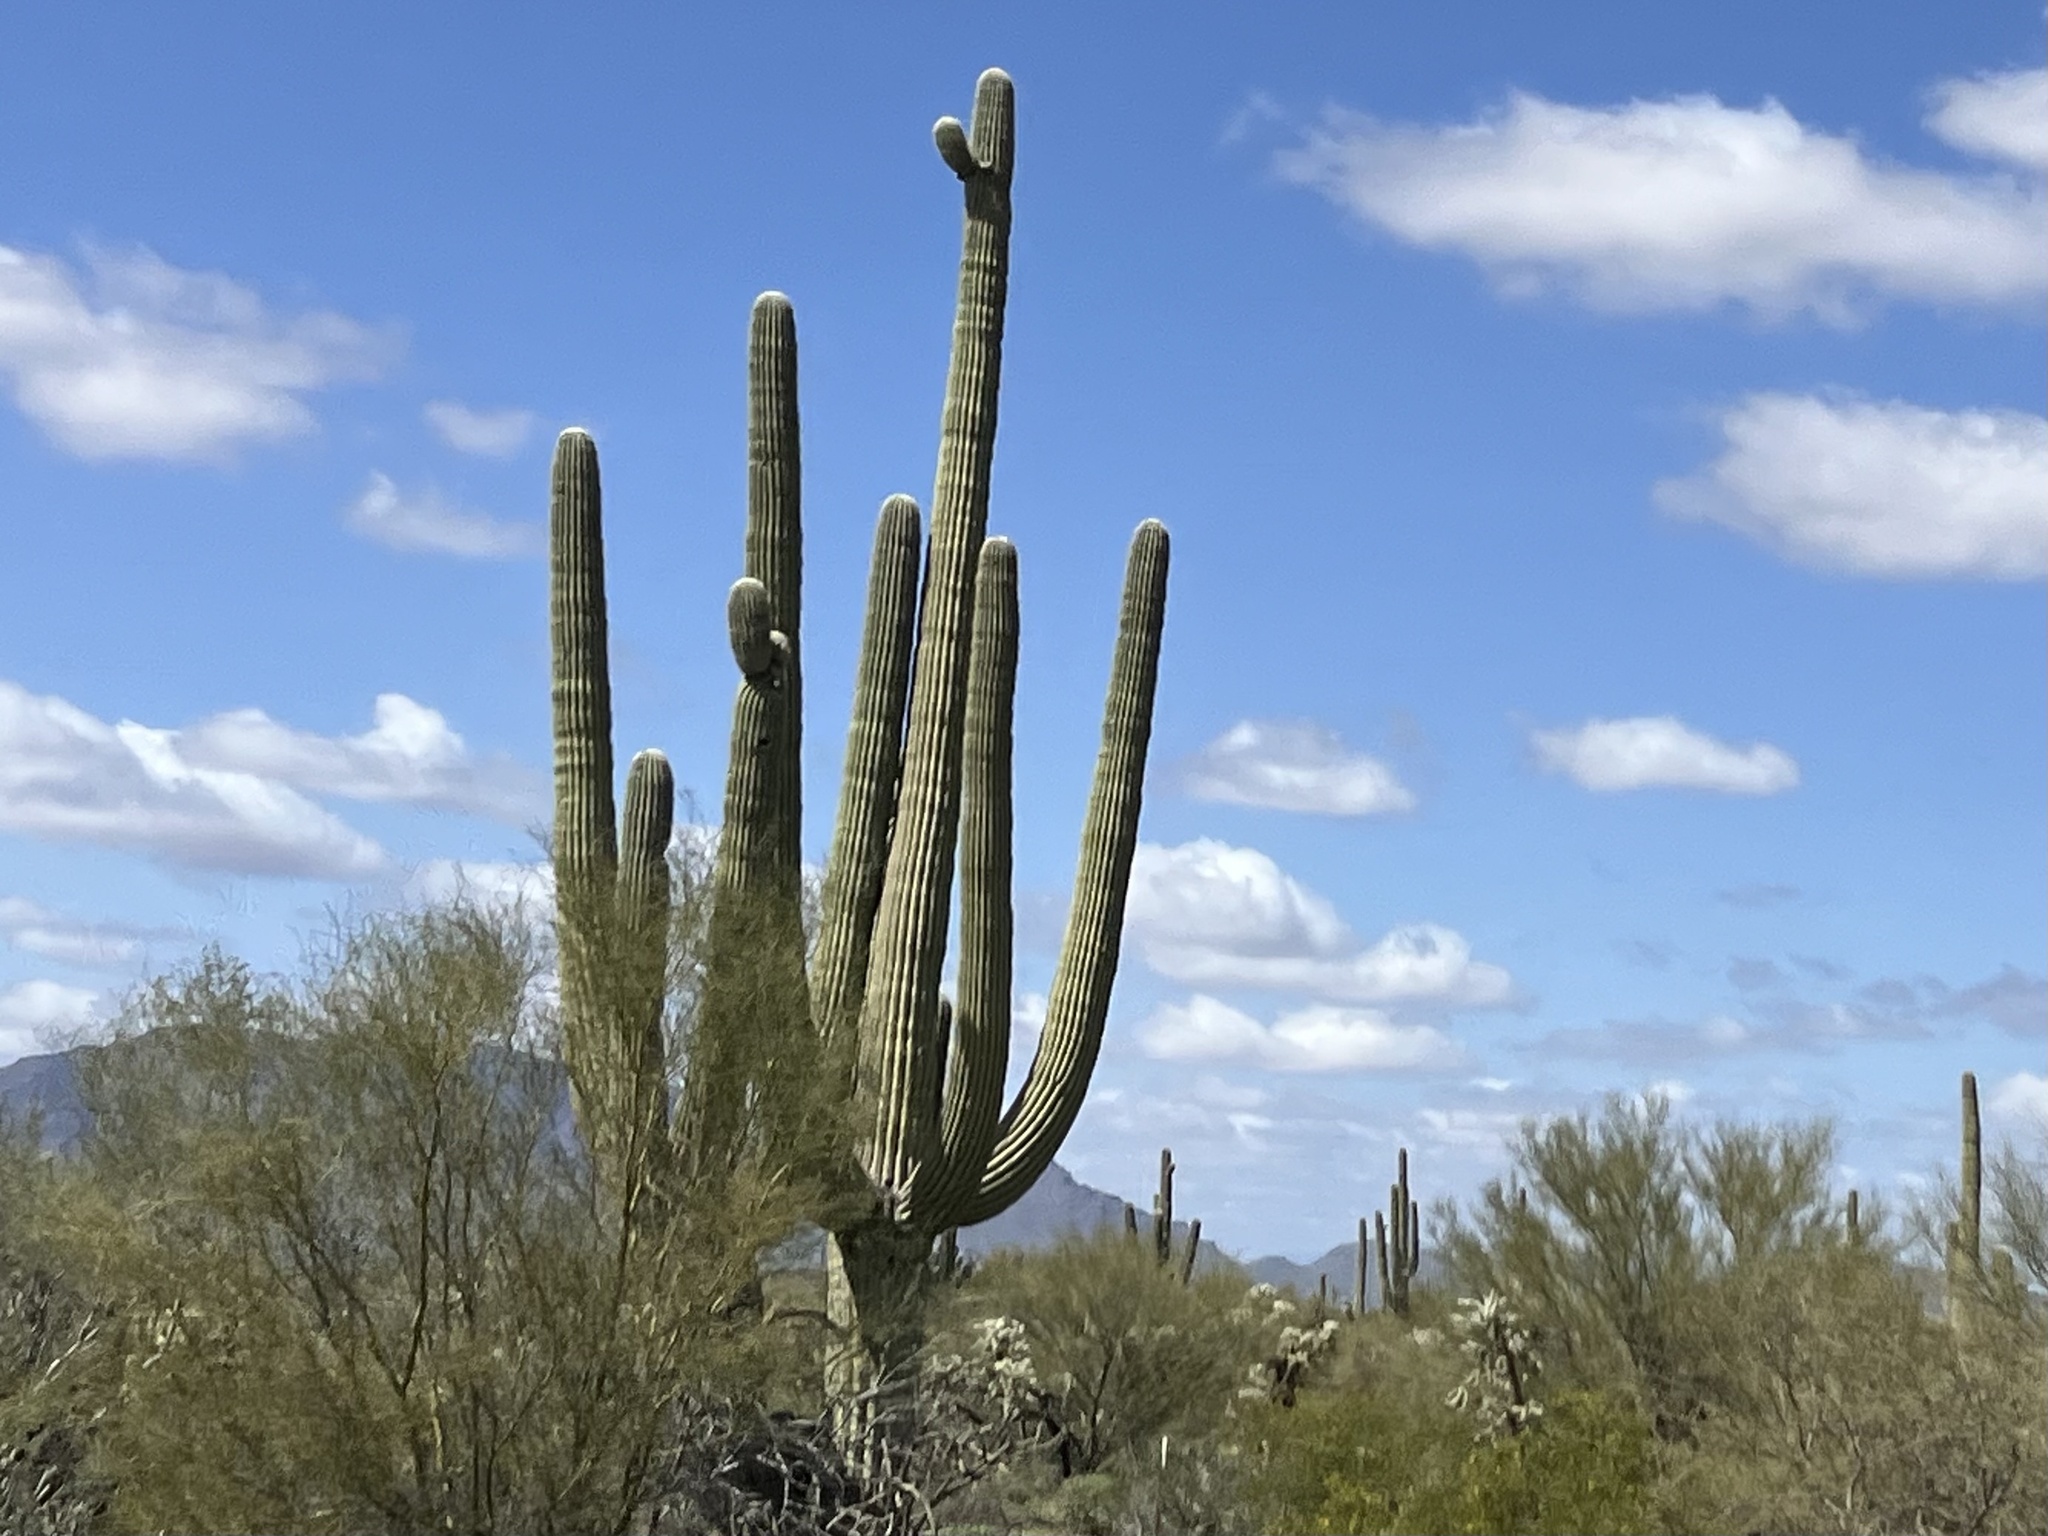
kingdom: Plantae
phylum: Tracheophyta
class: Magnoliopsida
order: Caryophyllales
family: Cactaceae
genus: Carnegiea
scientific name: Carnegiea gigantea
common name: Saguaro
